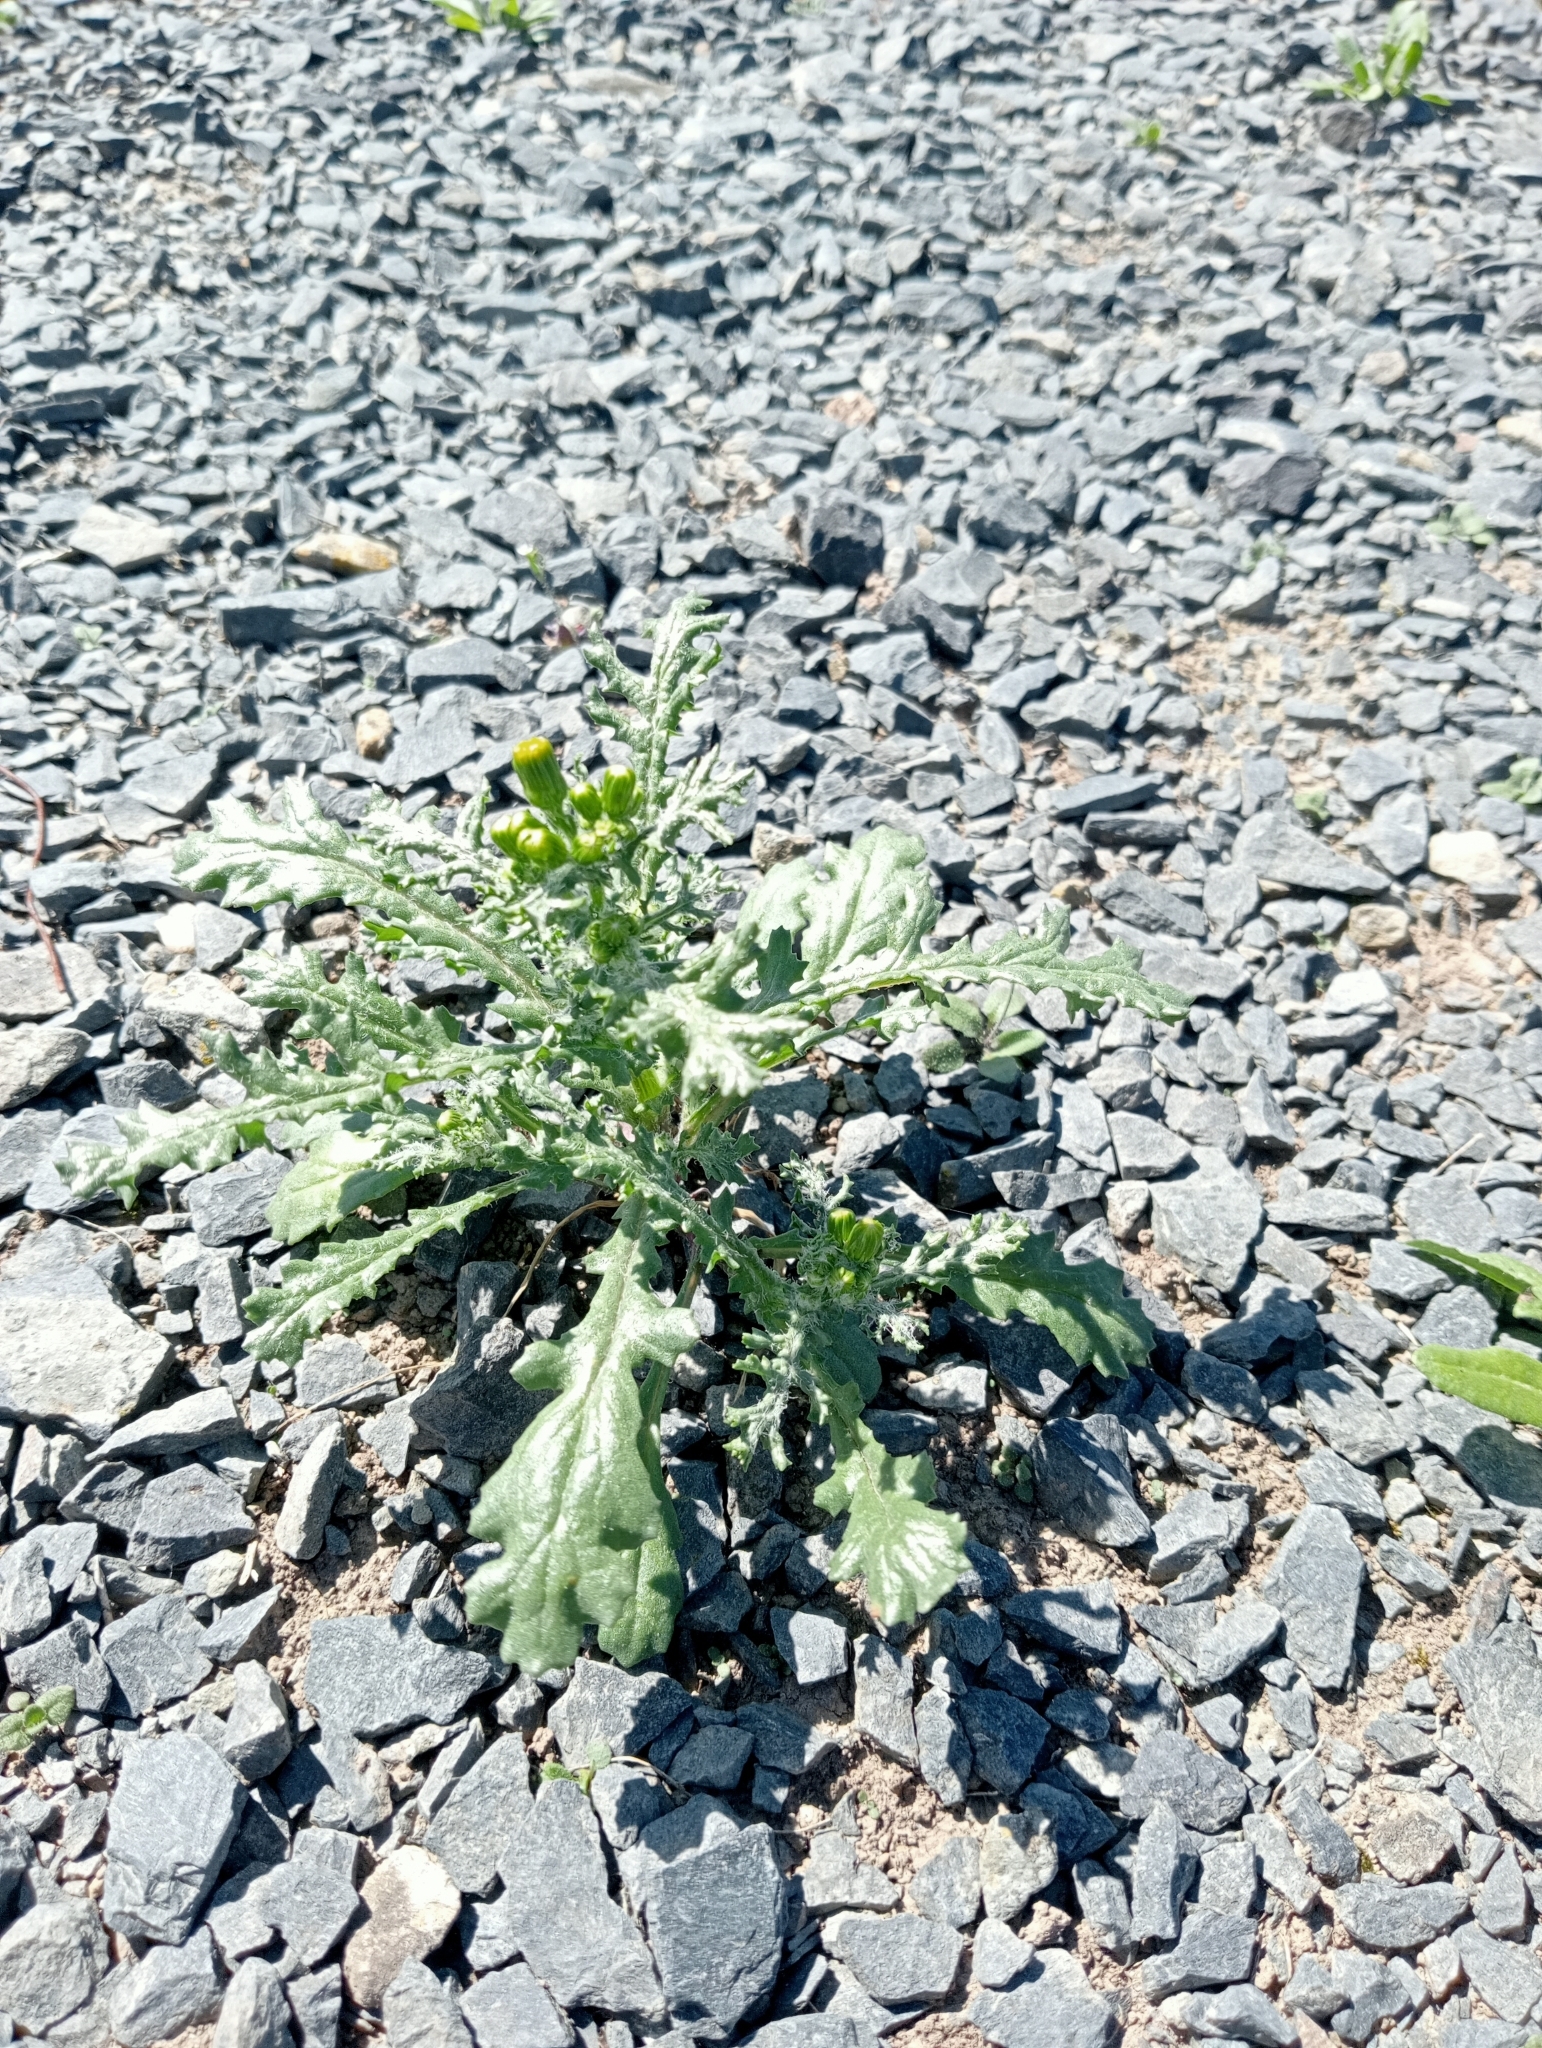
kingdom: Plantae
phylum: Tracheophyta
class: Magnoliopsida
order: Asterales
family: Asteraceae
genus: Senecio
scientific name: Senecio vulgaris
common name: Old-man-in-the-spring
